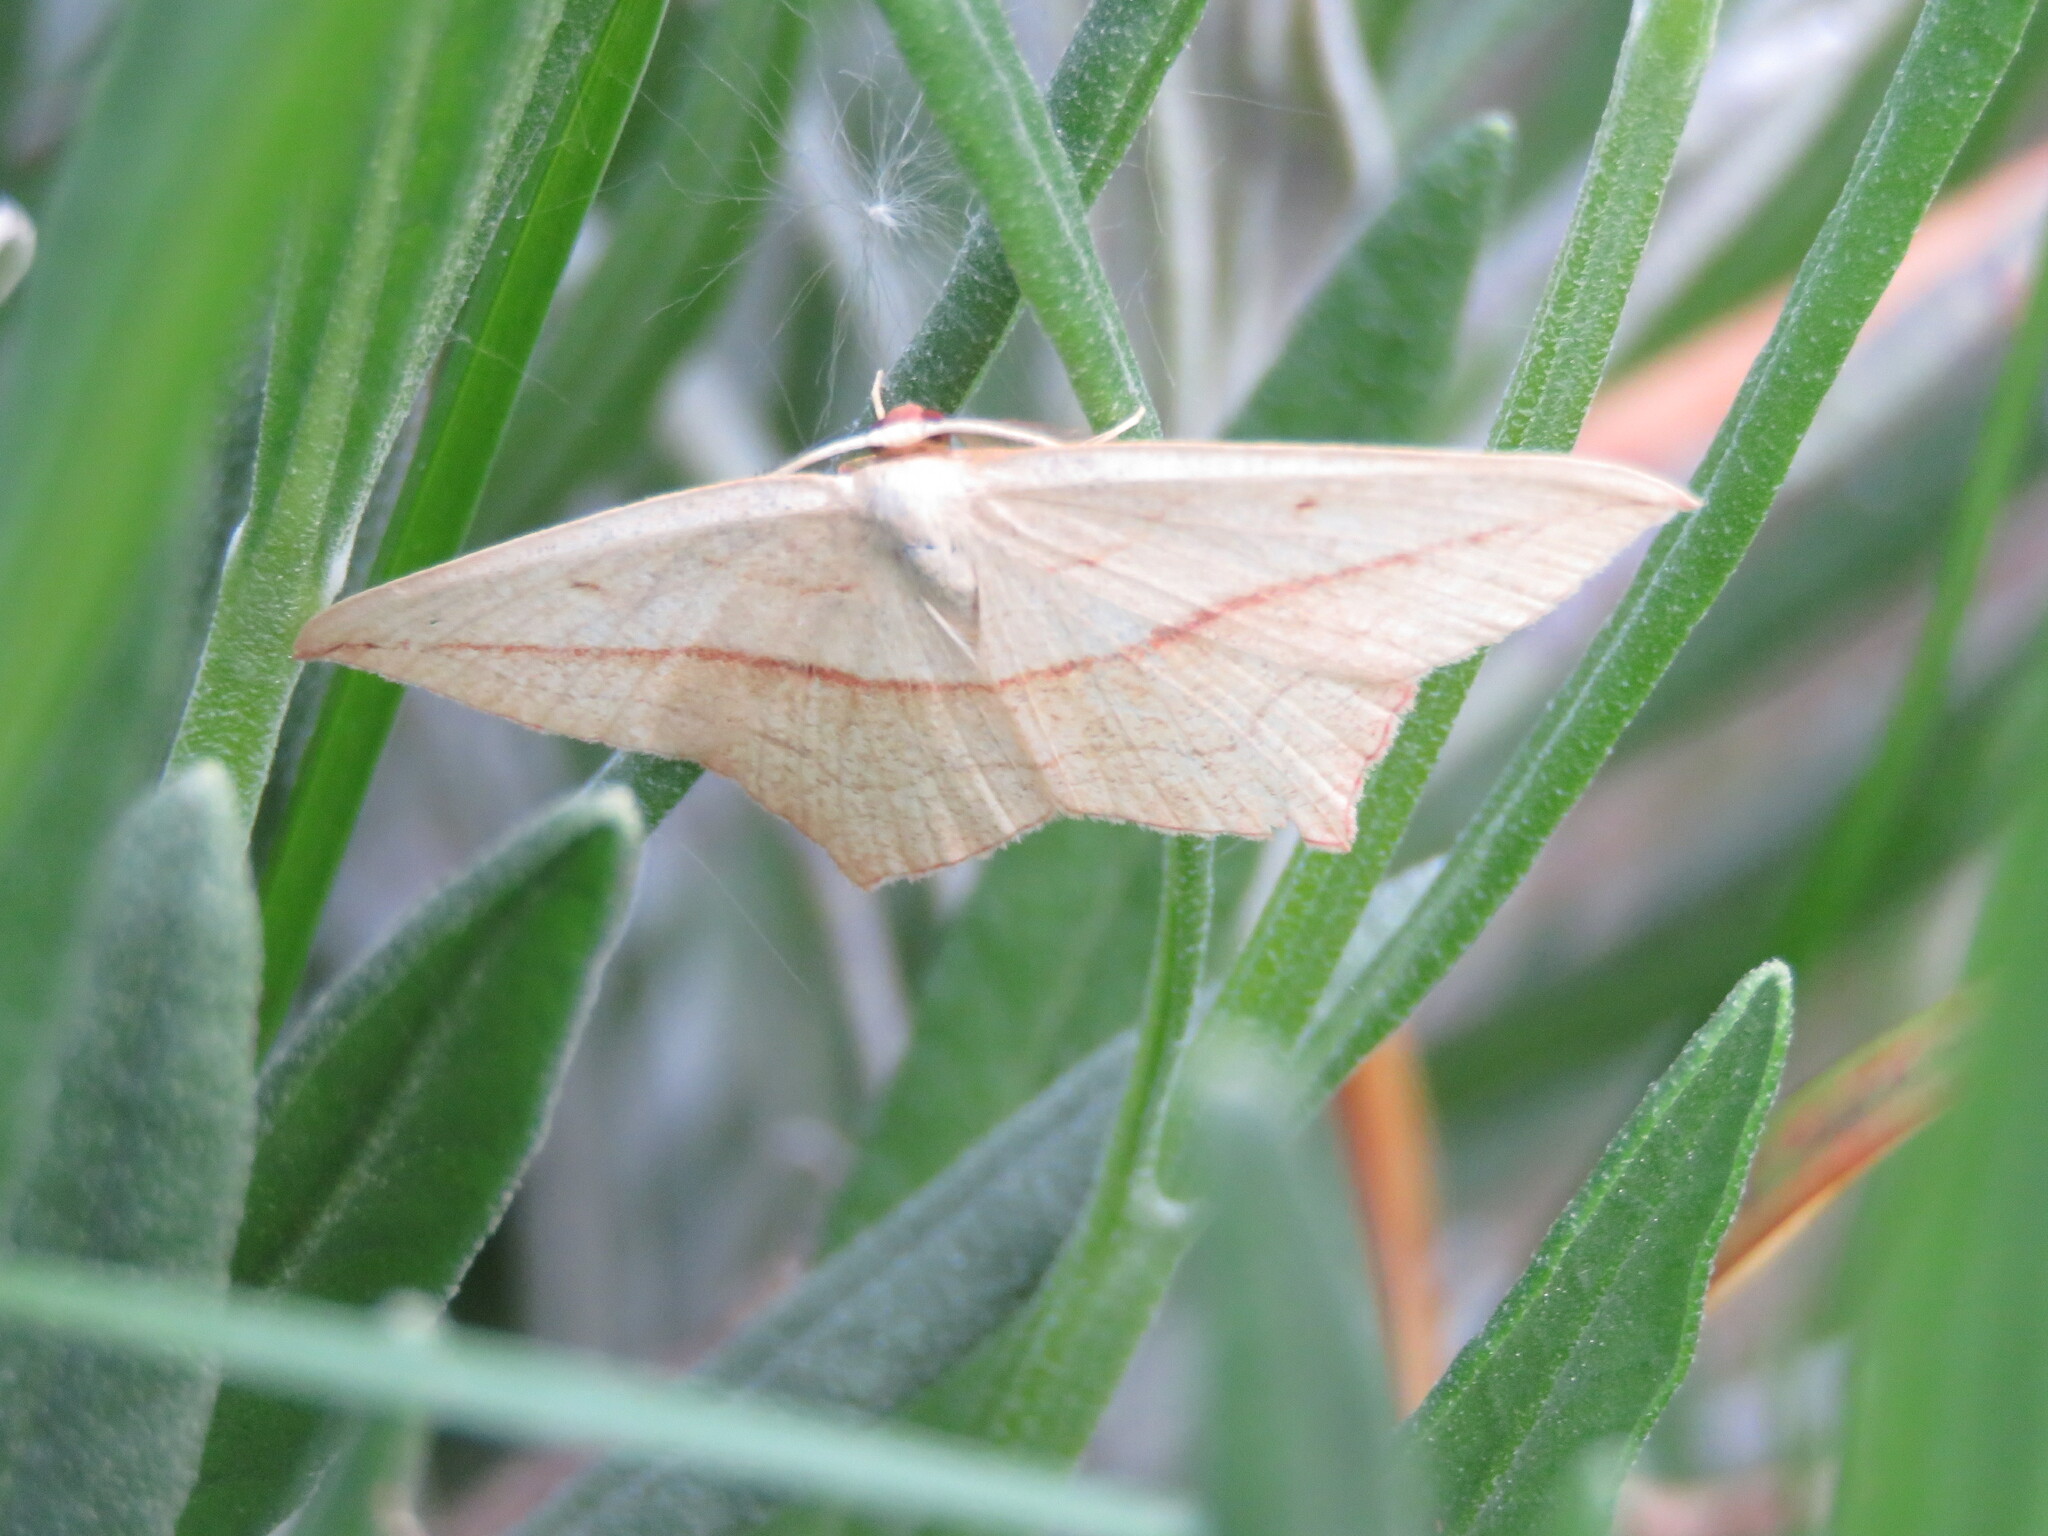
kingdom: Animalia
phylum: Arthropoda
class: Insecta
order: Lepidoptera
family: Geometridae
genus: Timandra
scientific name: Timandra comae
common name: Blood-vein
